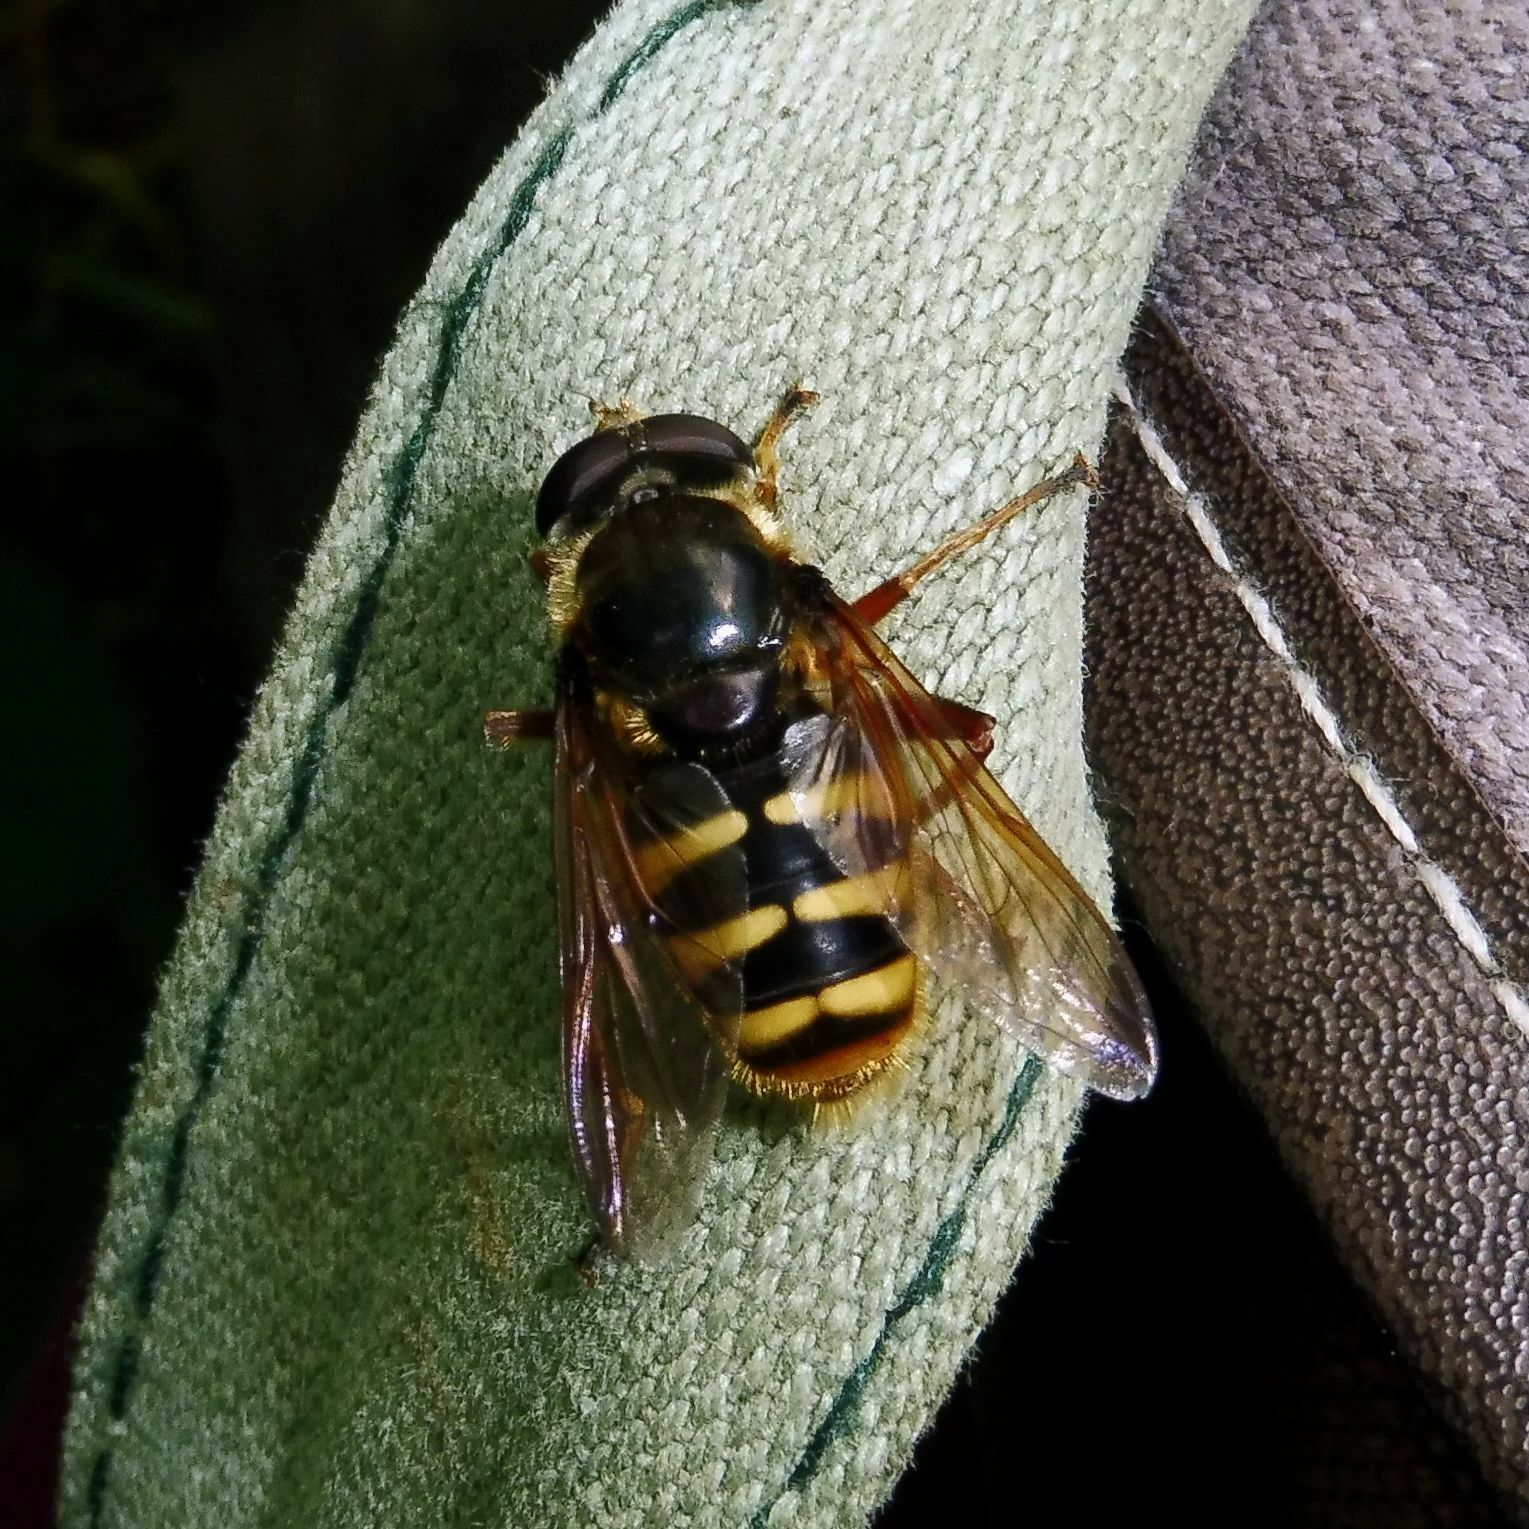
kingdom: Animalia
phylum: Arthropoda
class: Insecta
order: Diptera
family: Syrphidae
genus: Sericomyia
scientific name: Sericomyia silentis
